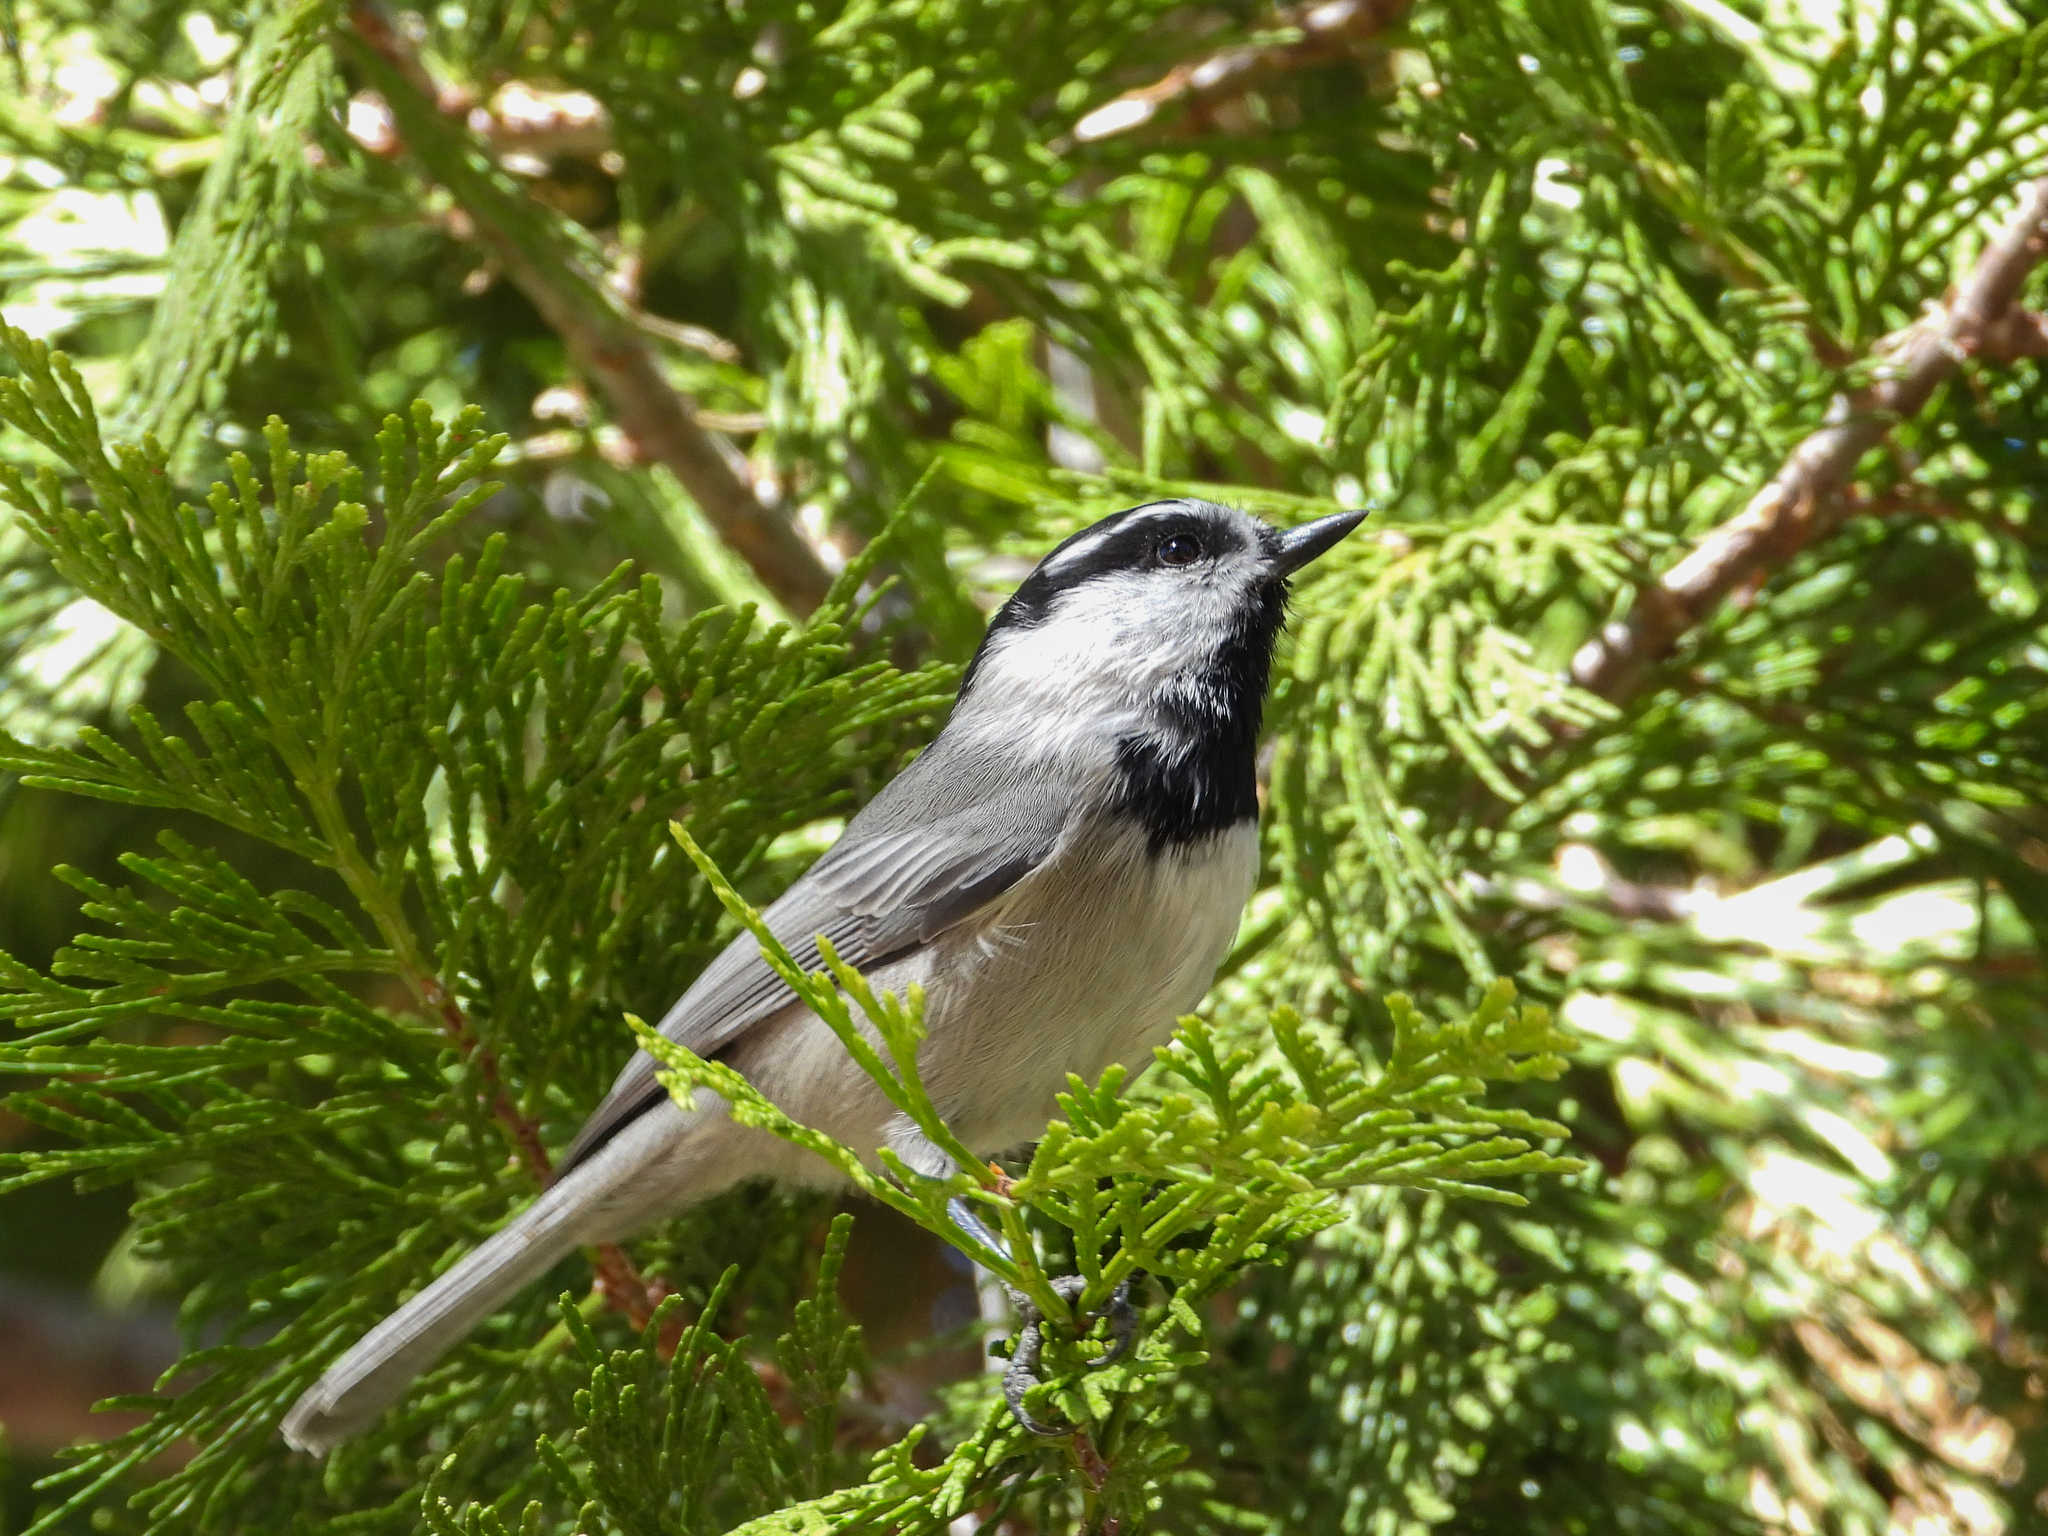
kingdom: Animalia
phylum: Chordata
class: Aves
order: Passeriformes
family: Paridae
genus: Poecile
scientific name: Poecile gambeli
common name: Mountain chickadee
